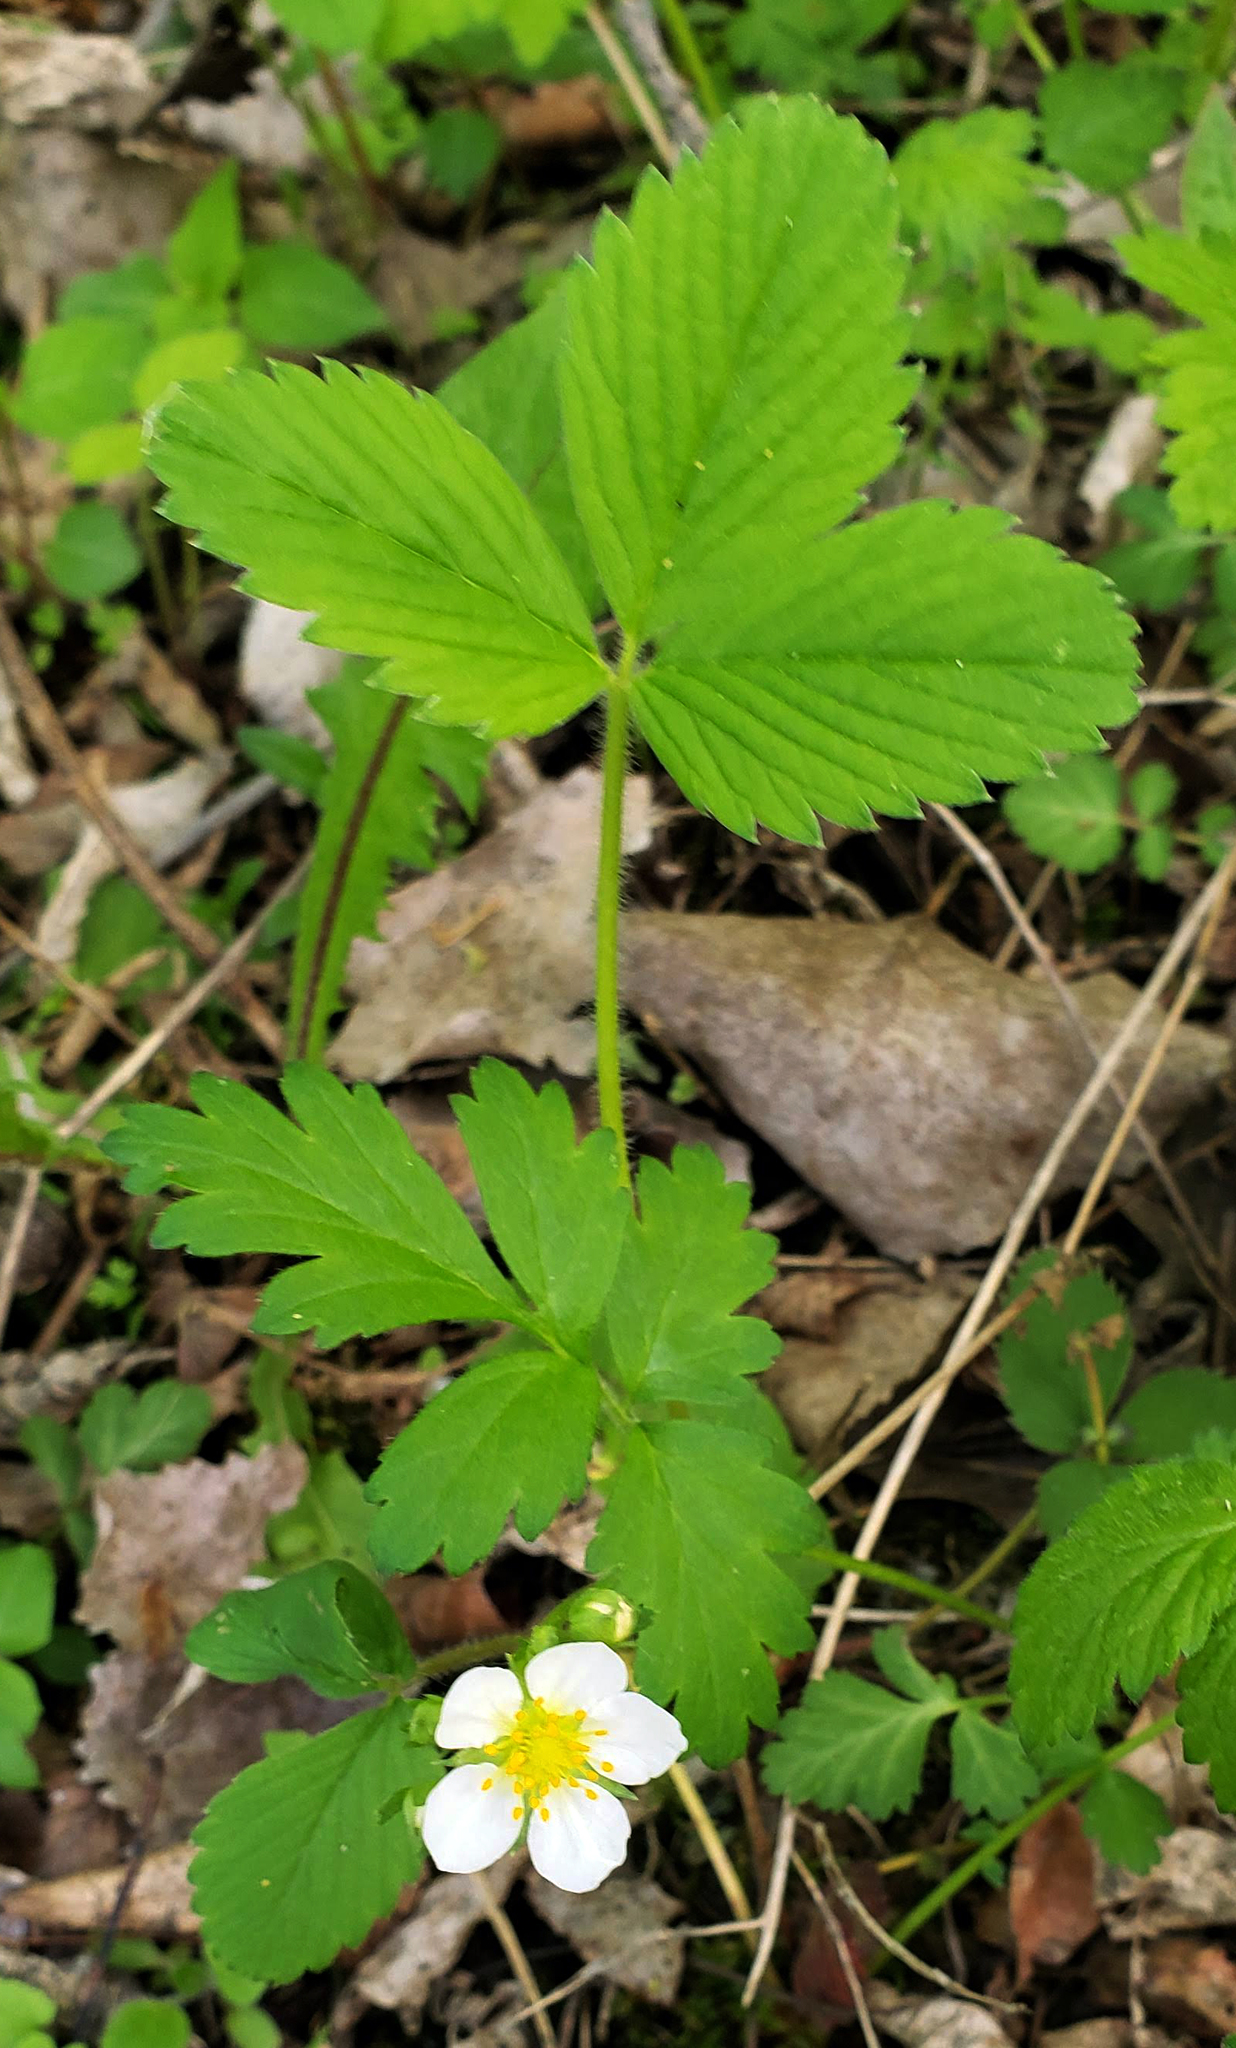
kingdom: Plantae
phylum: Tracheophyta
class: Magnoliopsida
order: Rosales
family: Rosaceae
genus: Fragaria
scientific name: Fragaria virginiana
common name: Thickleaved wild strawberry
